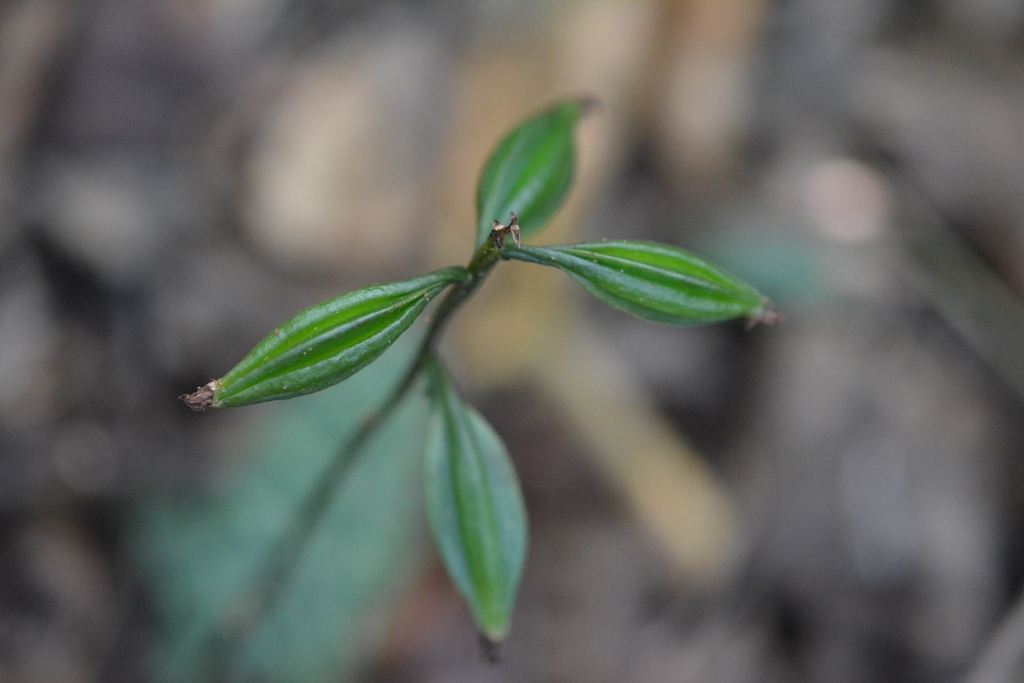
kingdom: Plantae
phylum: Tracheophyta
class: Liliopsida
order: Asparagales
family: Orchidaceae
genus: Eulophia
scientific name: Eulophia maculata
